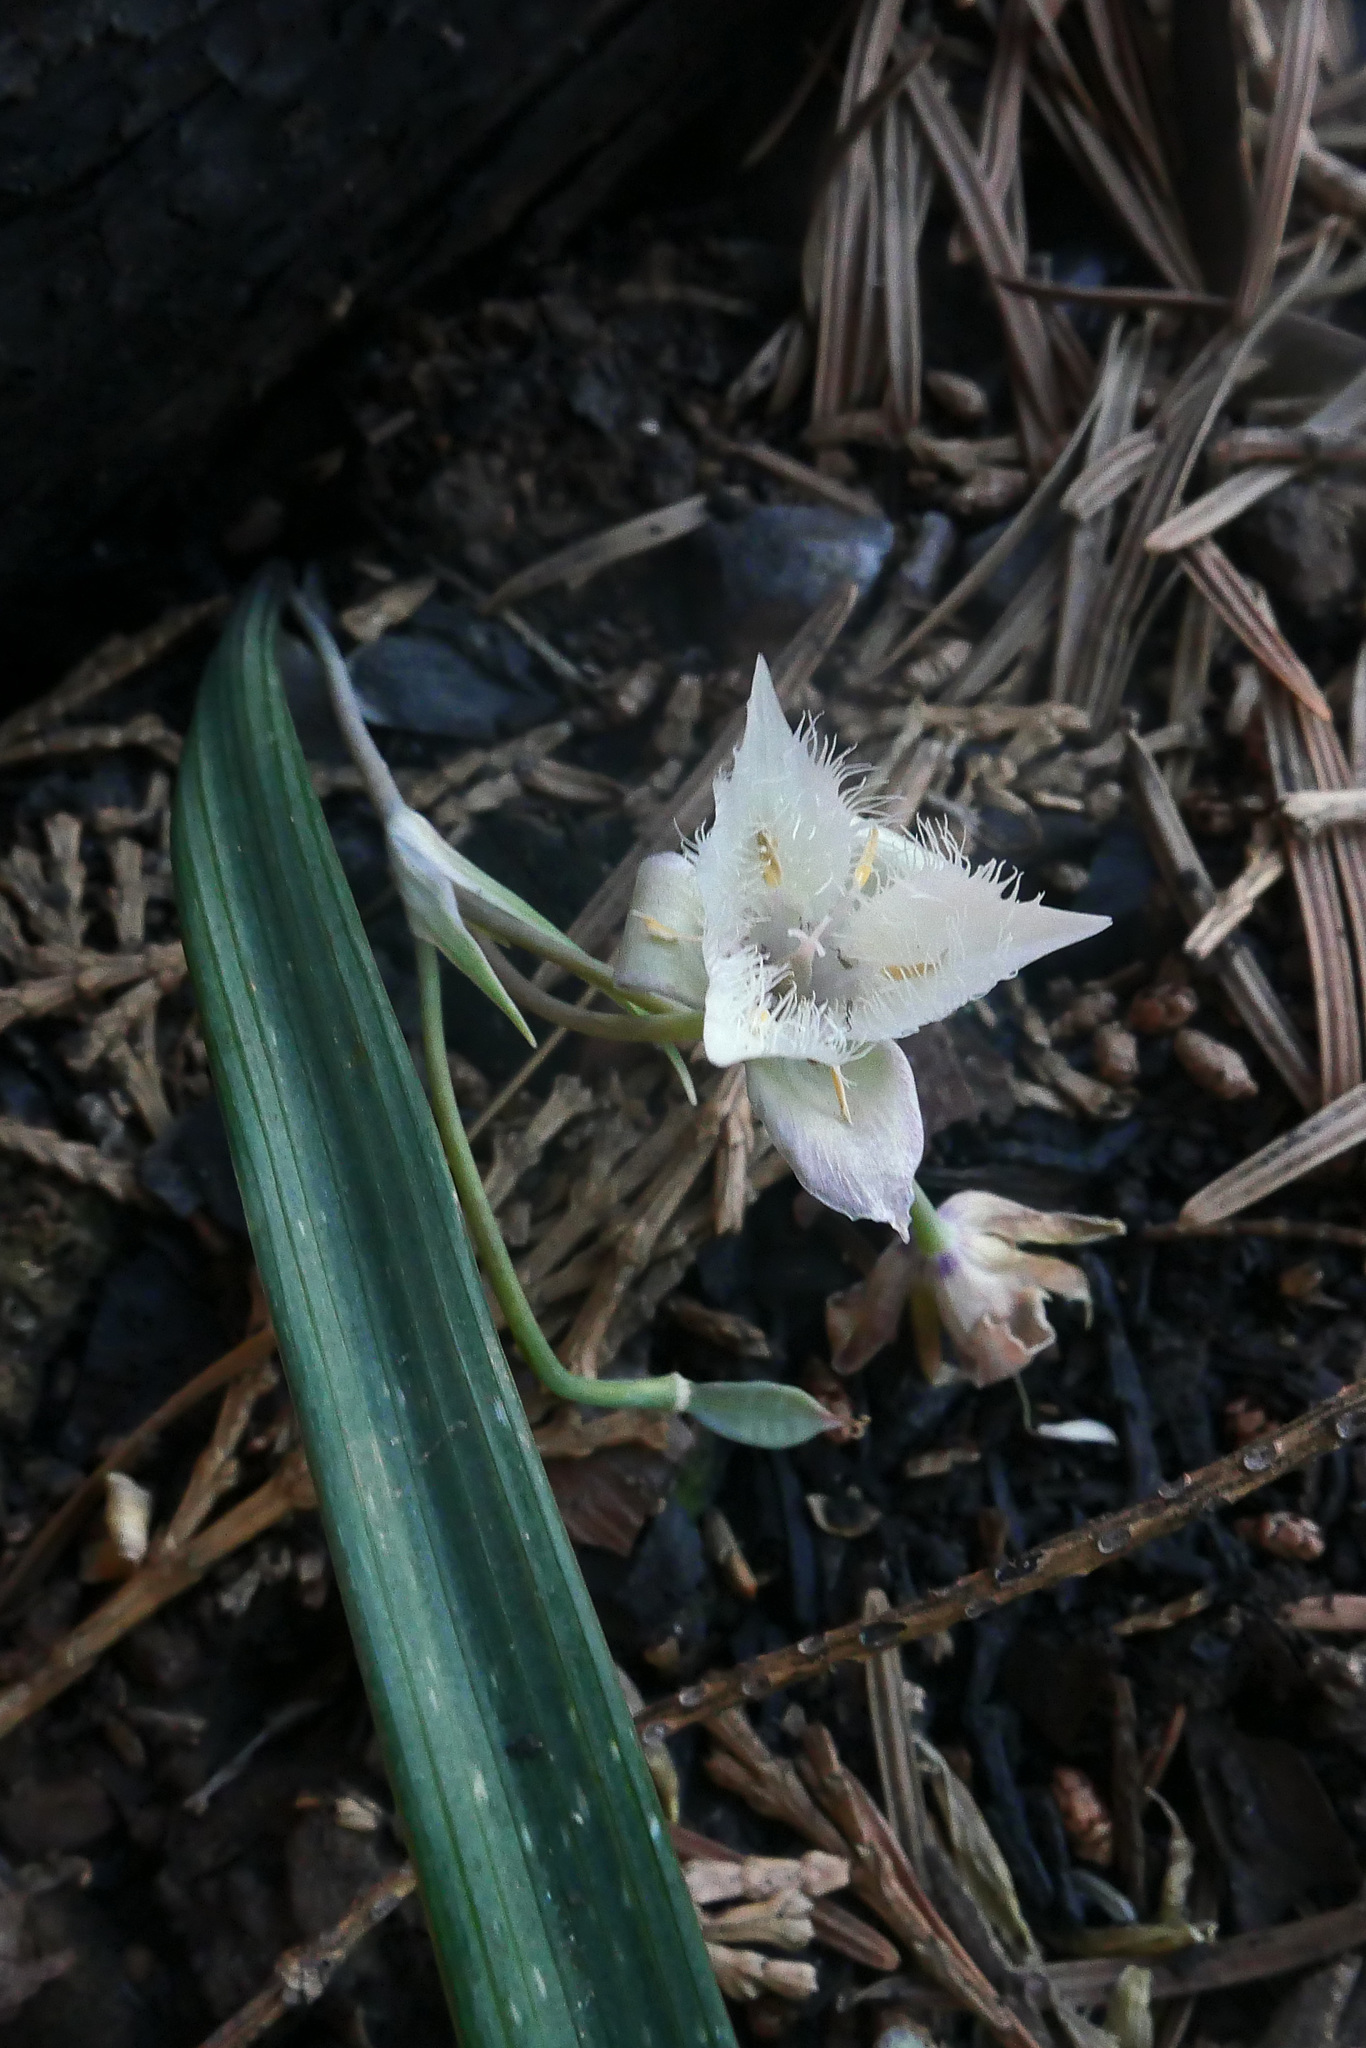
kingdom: Plantae
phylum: Tracheophyta
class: Liliopsida
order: Liliales
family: Liliaceae
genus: Calochortus
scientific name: Calochortus westonii
